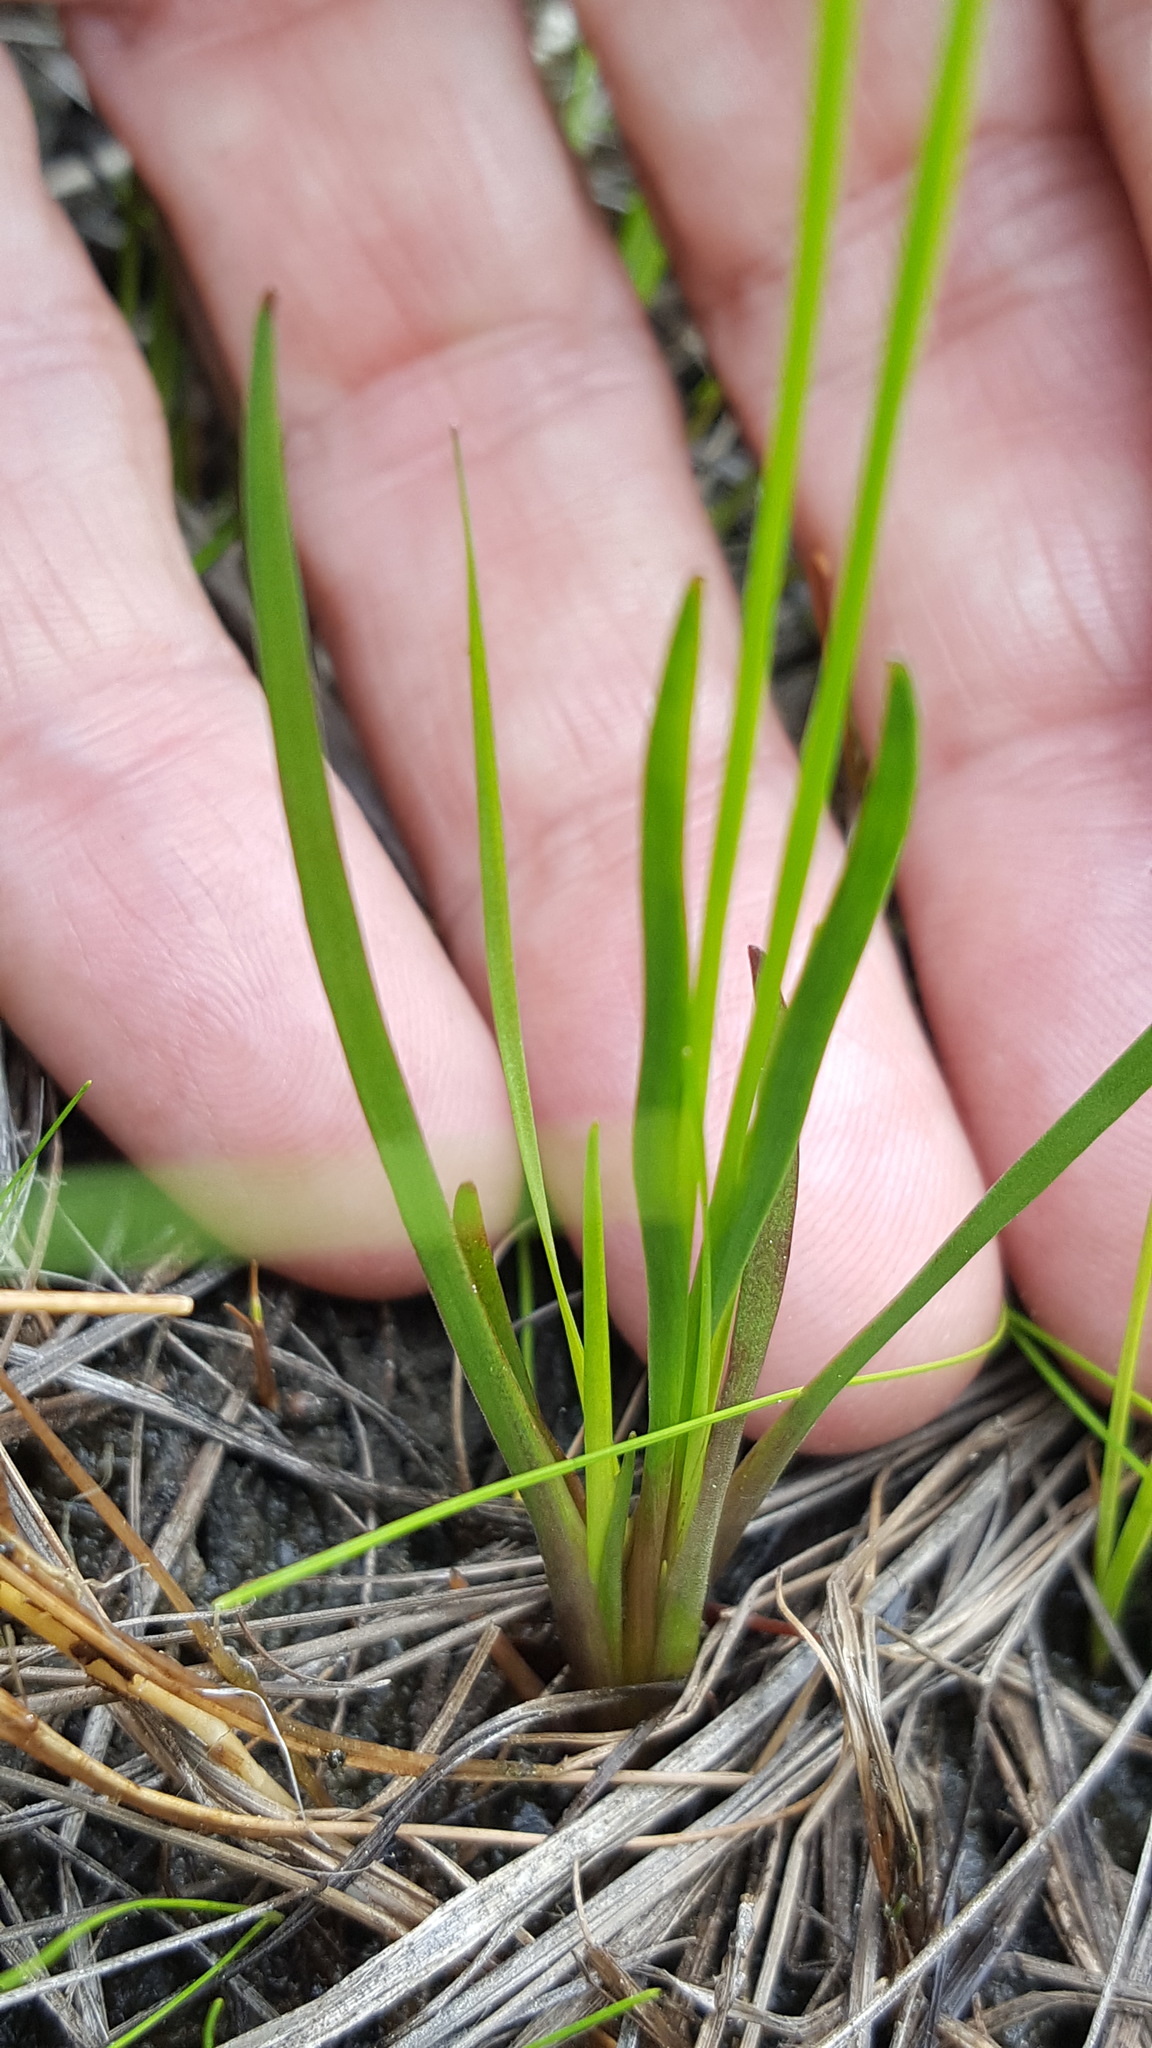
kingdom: Plantae
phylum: Tracheophyta
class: Liliopsida
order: Poales
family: Xyridaceae
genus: Xyris
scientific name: Xyris montana
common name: Northern yellow-eyed-grass
